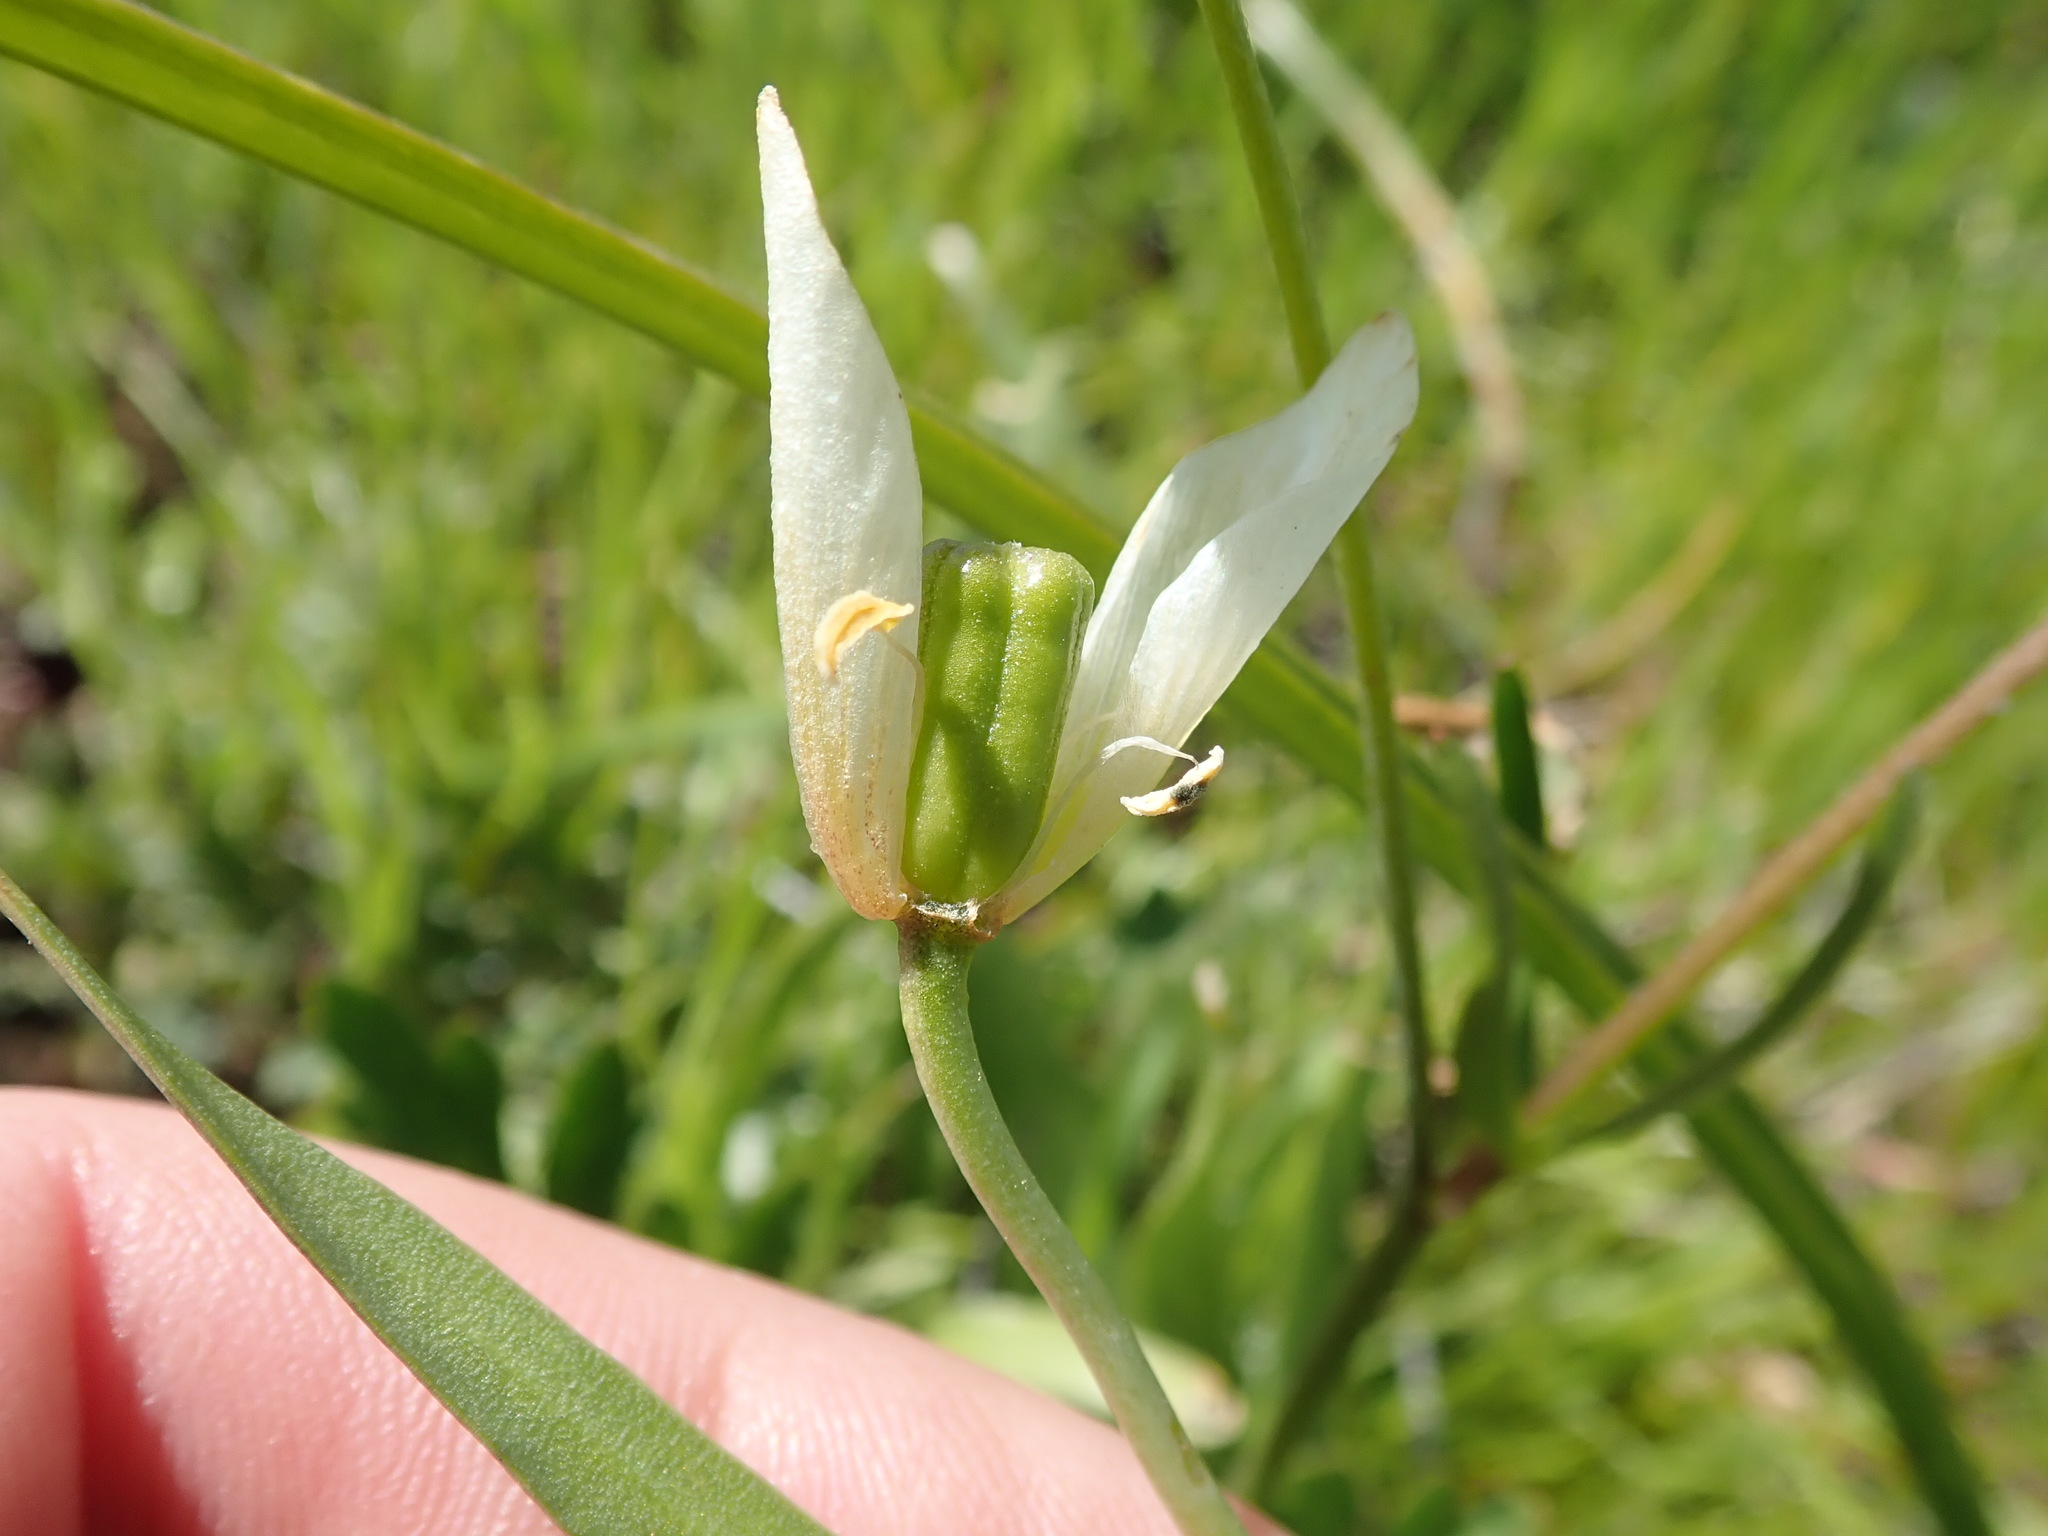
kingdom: Plantae
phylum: Tracheophyta
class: Liliopsida
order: Liliales
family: Liliaceae
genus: Fritillaria
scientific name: Fritillaria liliacea
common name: Fragrant fritillary
